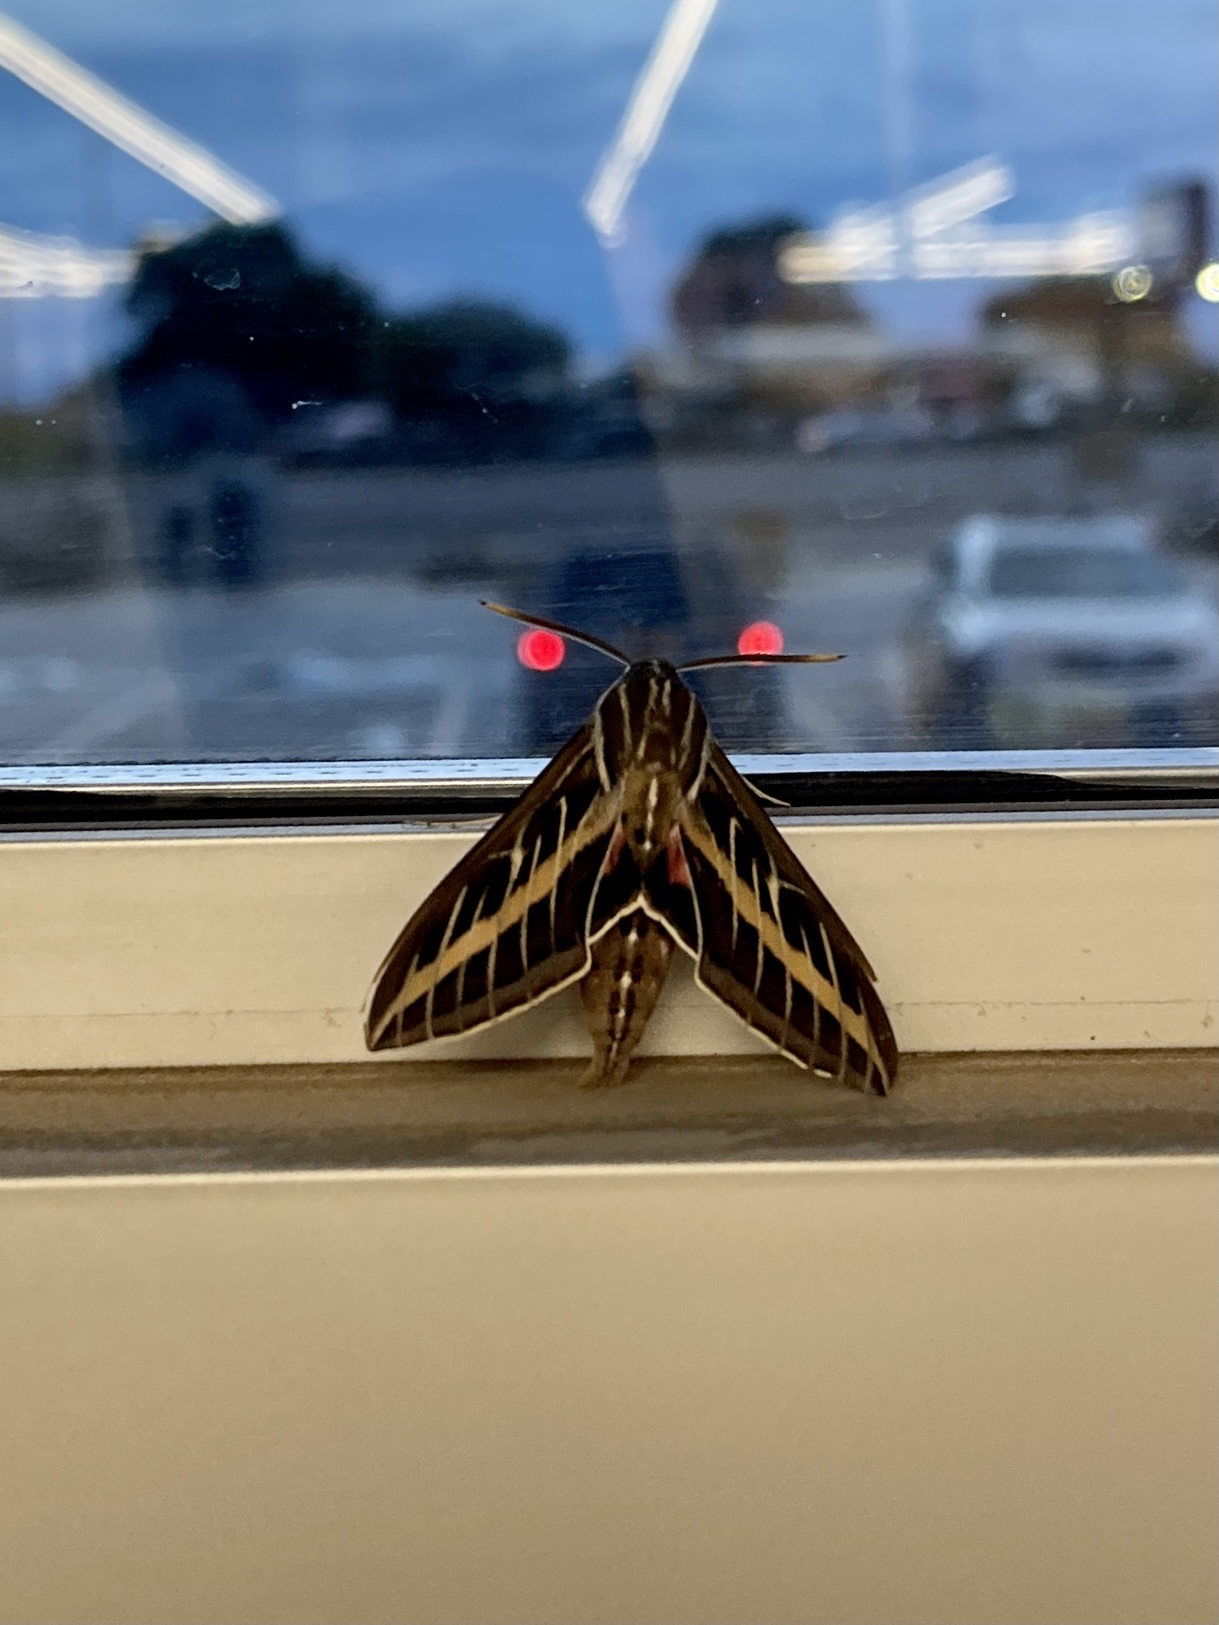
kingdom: Animalia
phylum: Arthropoda
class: Insecta
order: Lepidoptera
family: Sphingidae
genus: Hyles
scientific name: Hyles lineata
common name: White-lined sphinx
